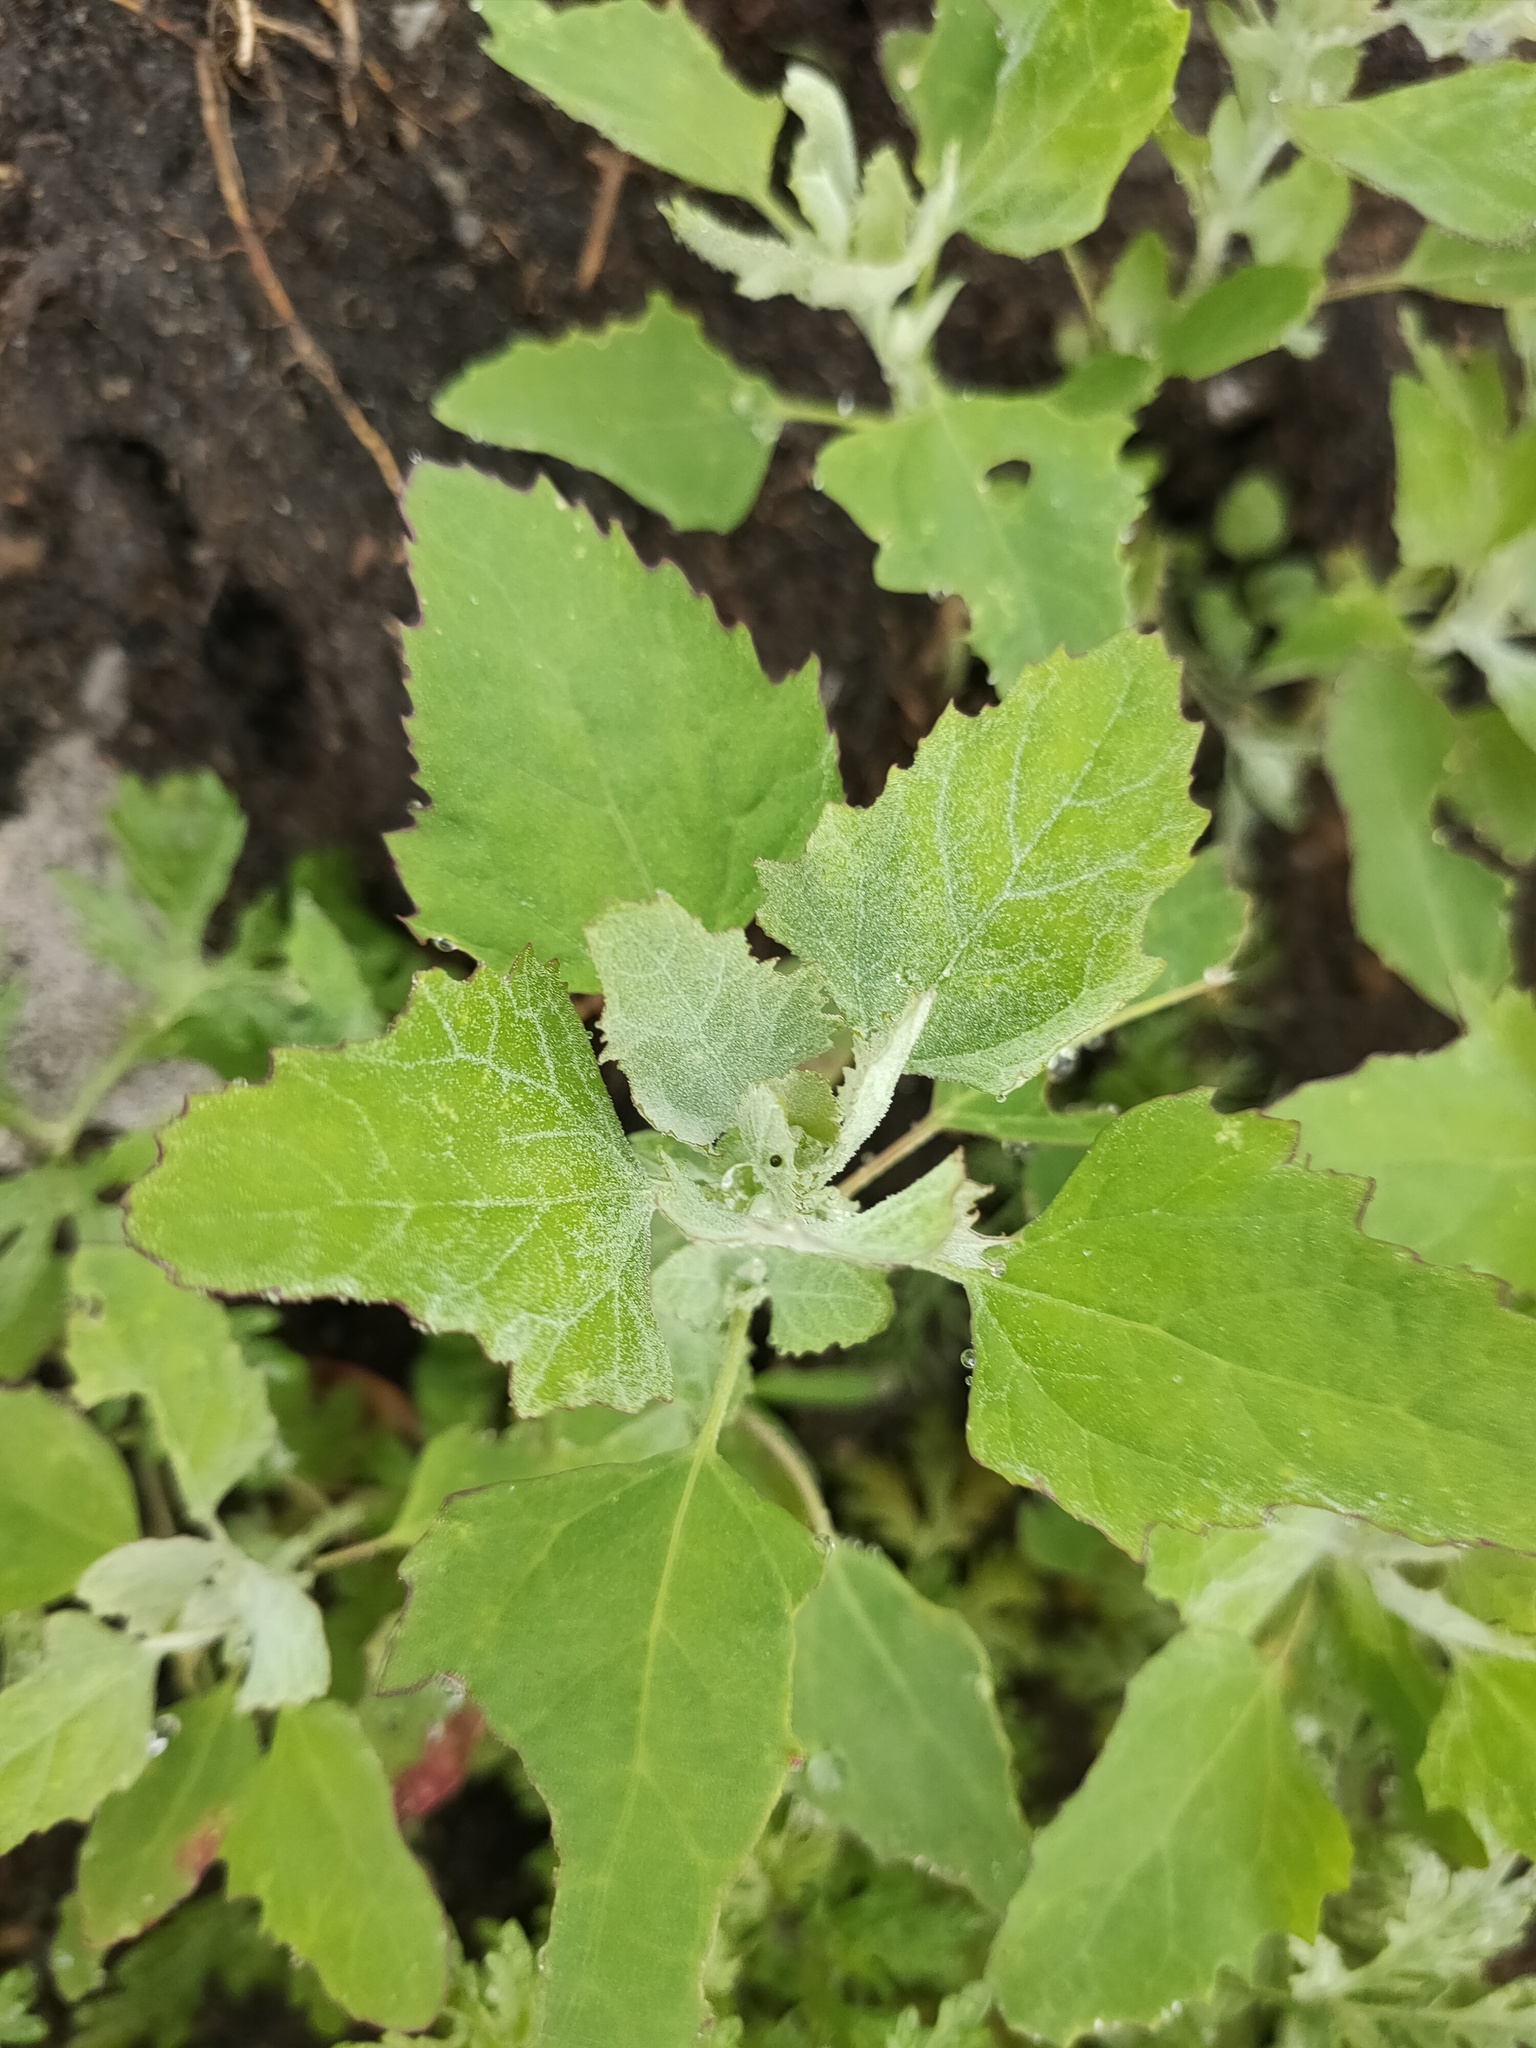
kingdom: Plantae
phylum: Tracheophyta
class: Magnoliopsida
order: Caryophyllales
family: Amaranthaceae
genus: Chenopodium
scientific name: Chenopodium album
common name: Fat-hen
